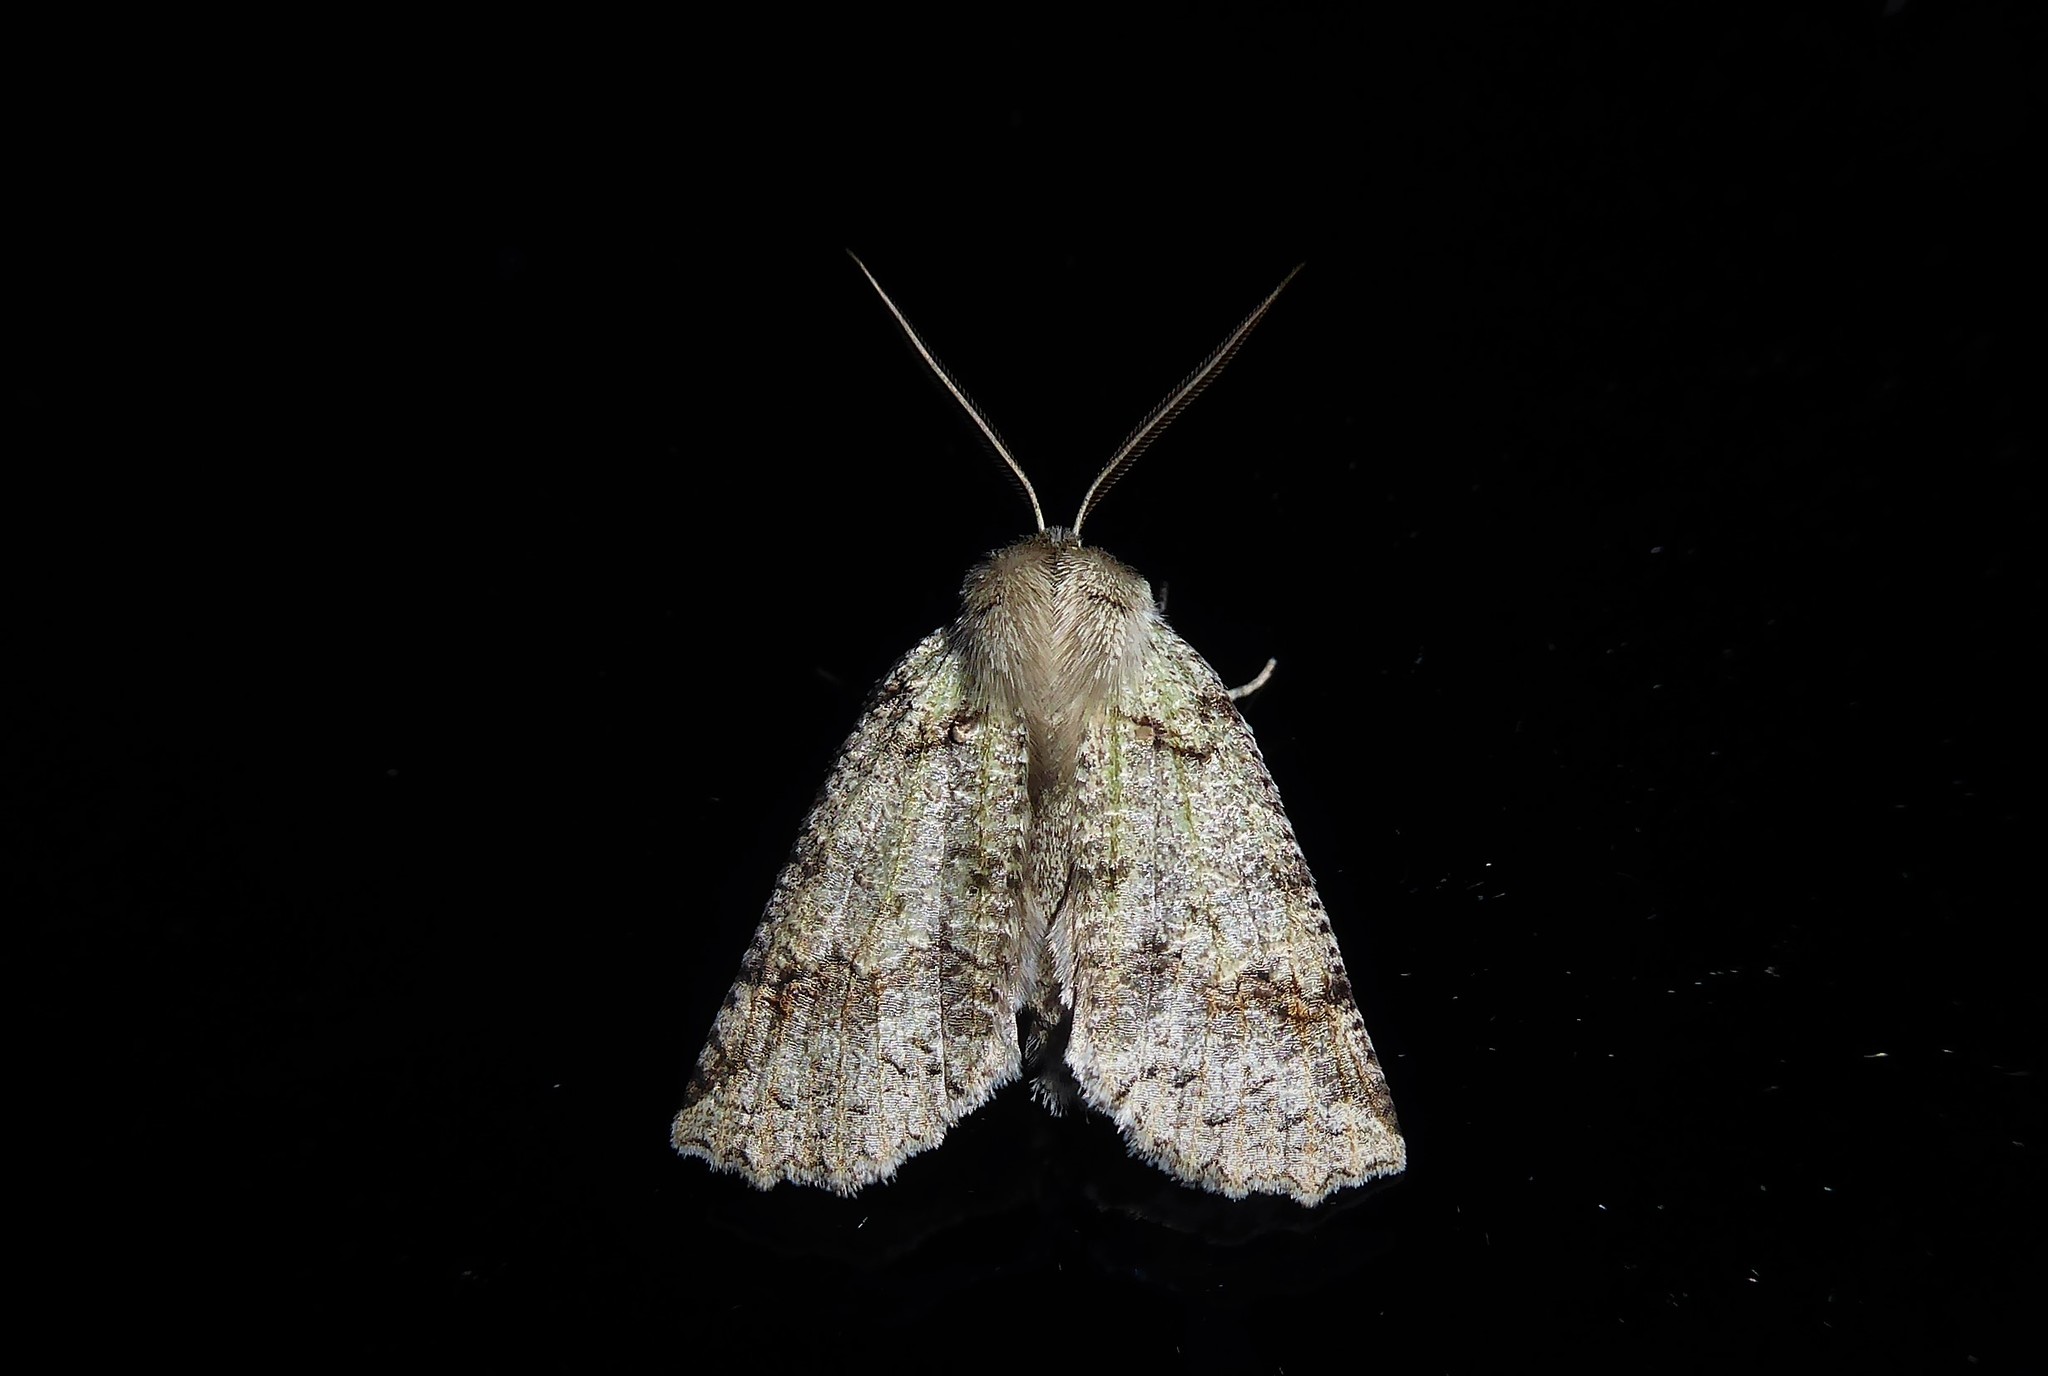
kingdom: Animalia
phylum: Arthropoda
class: Insecta
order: Lepidoptera
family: Geometridae
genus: Declana
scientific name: Declana floccosa
